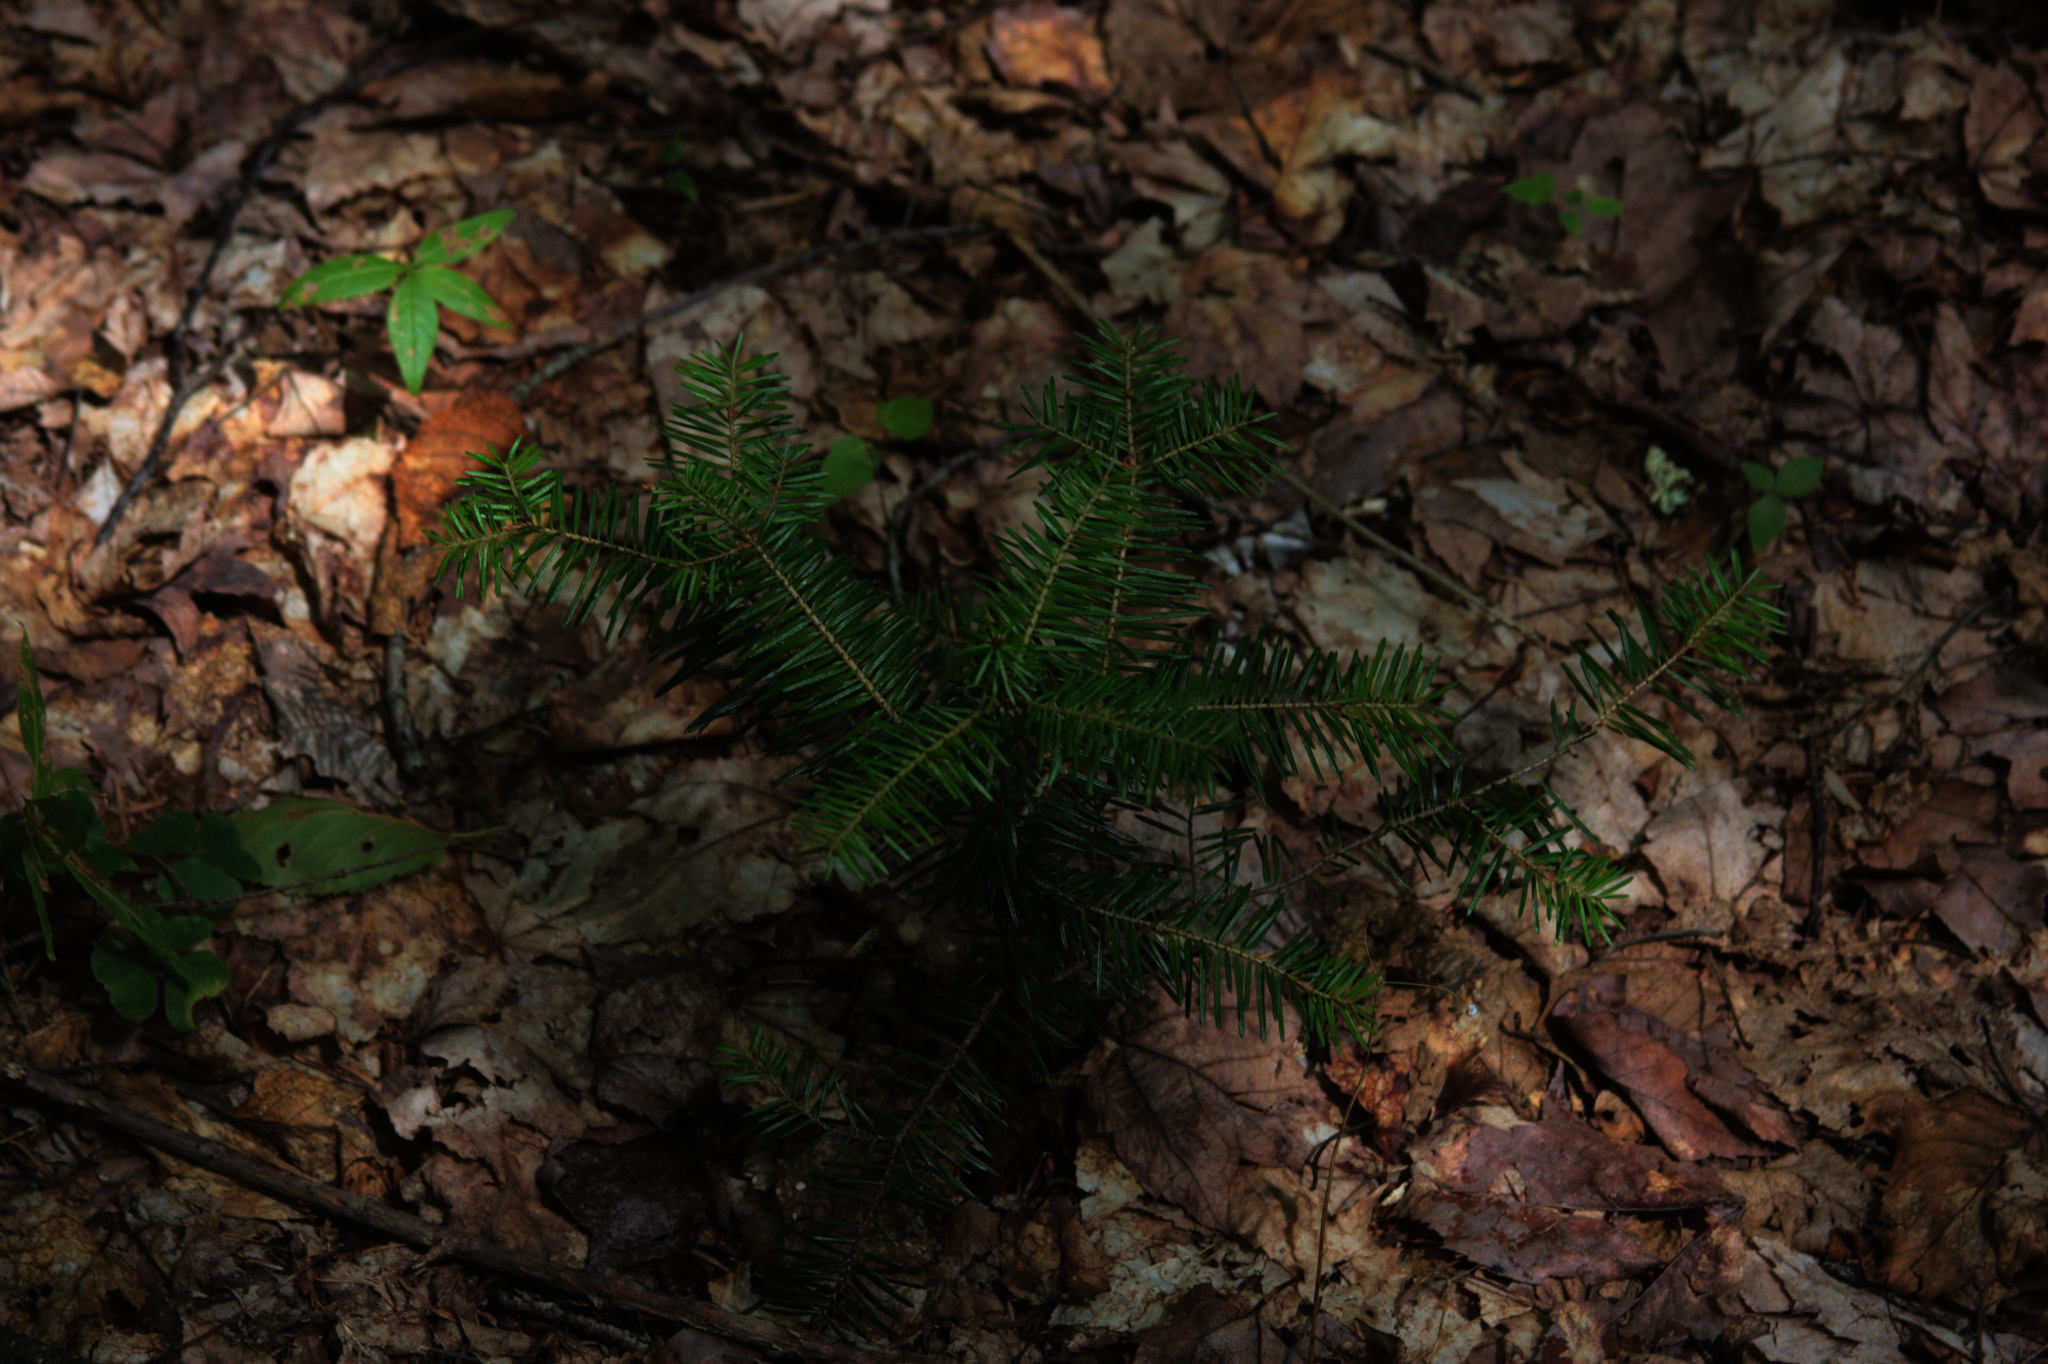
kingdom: Plantae
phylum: Tracheophyta
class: Pinopsida
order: Pinales
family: Pinaceae
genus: Abies
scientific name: Abies balsamea
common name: Balsam fir
